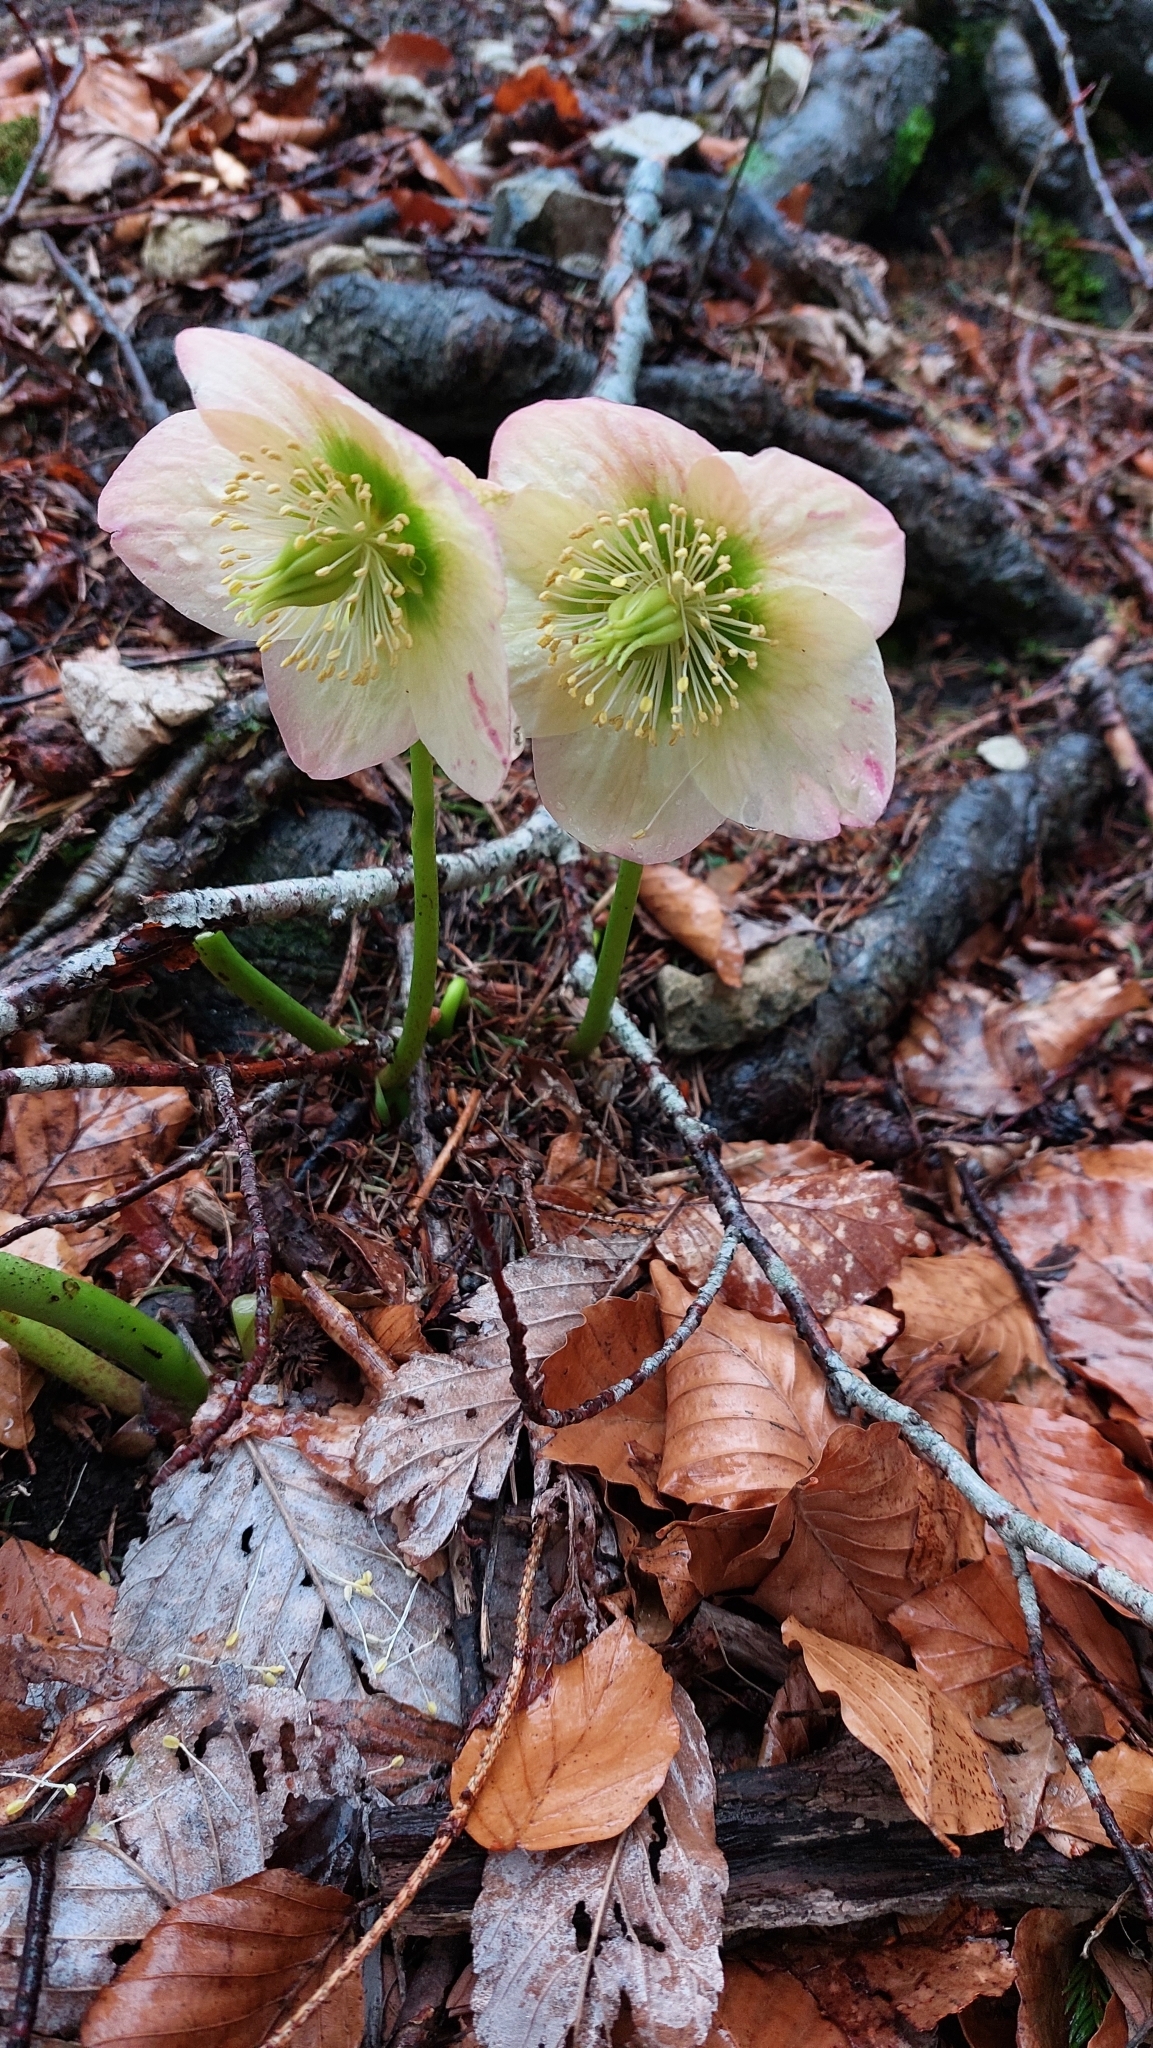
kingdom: Plantae
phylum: Tracheophyta
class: Magnoliopsida
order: Ranunculales
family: Ranunculaceae
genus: Helleborus
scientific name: Helleborus niger
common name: Black hellebore
